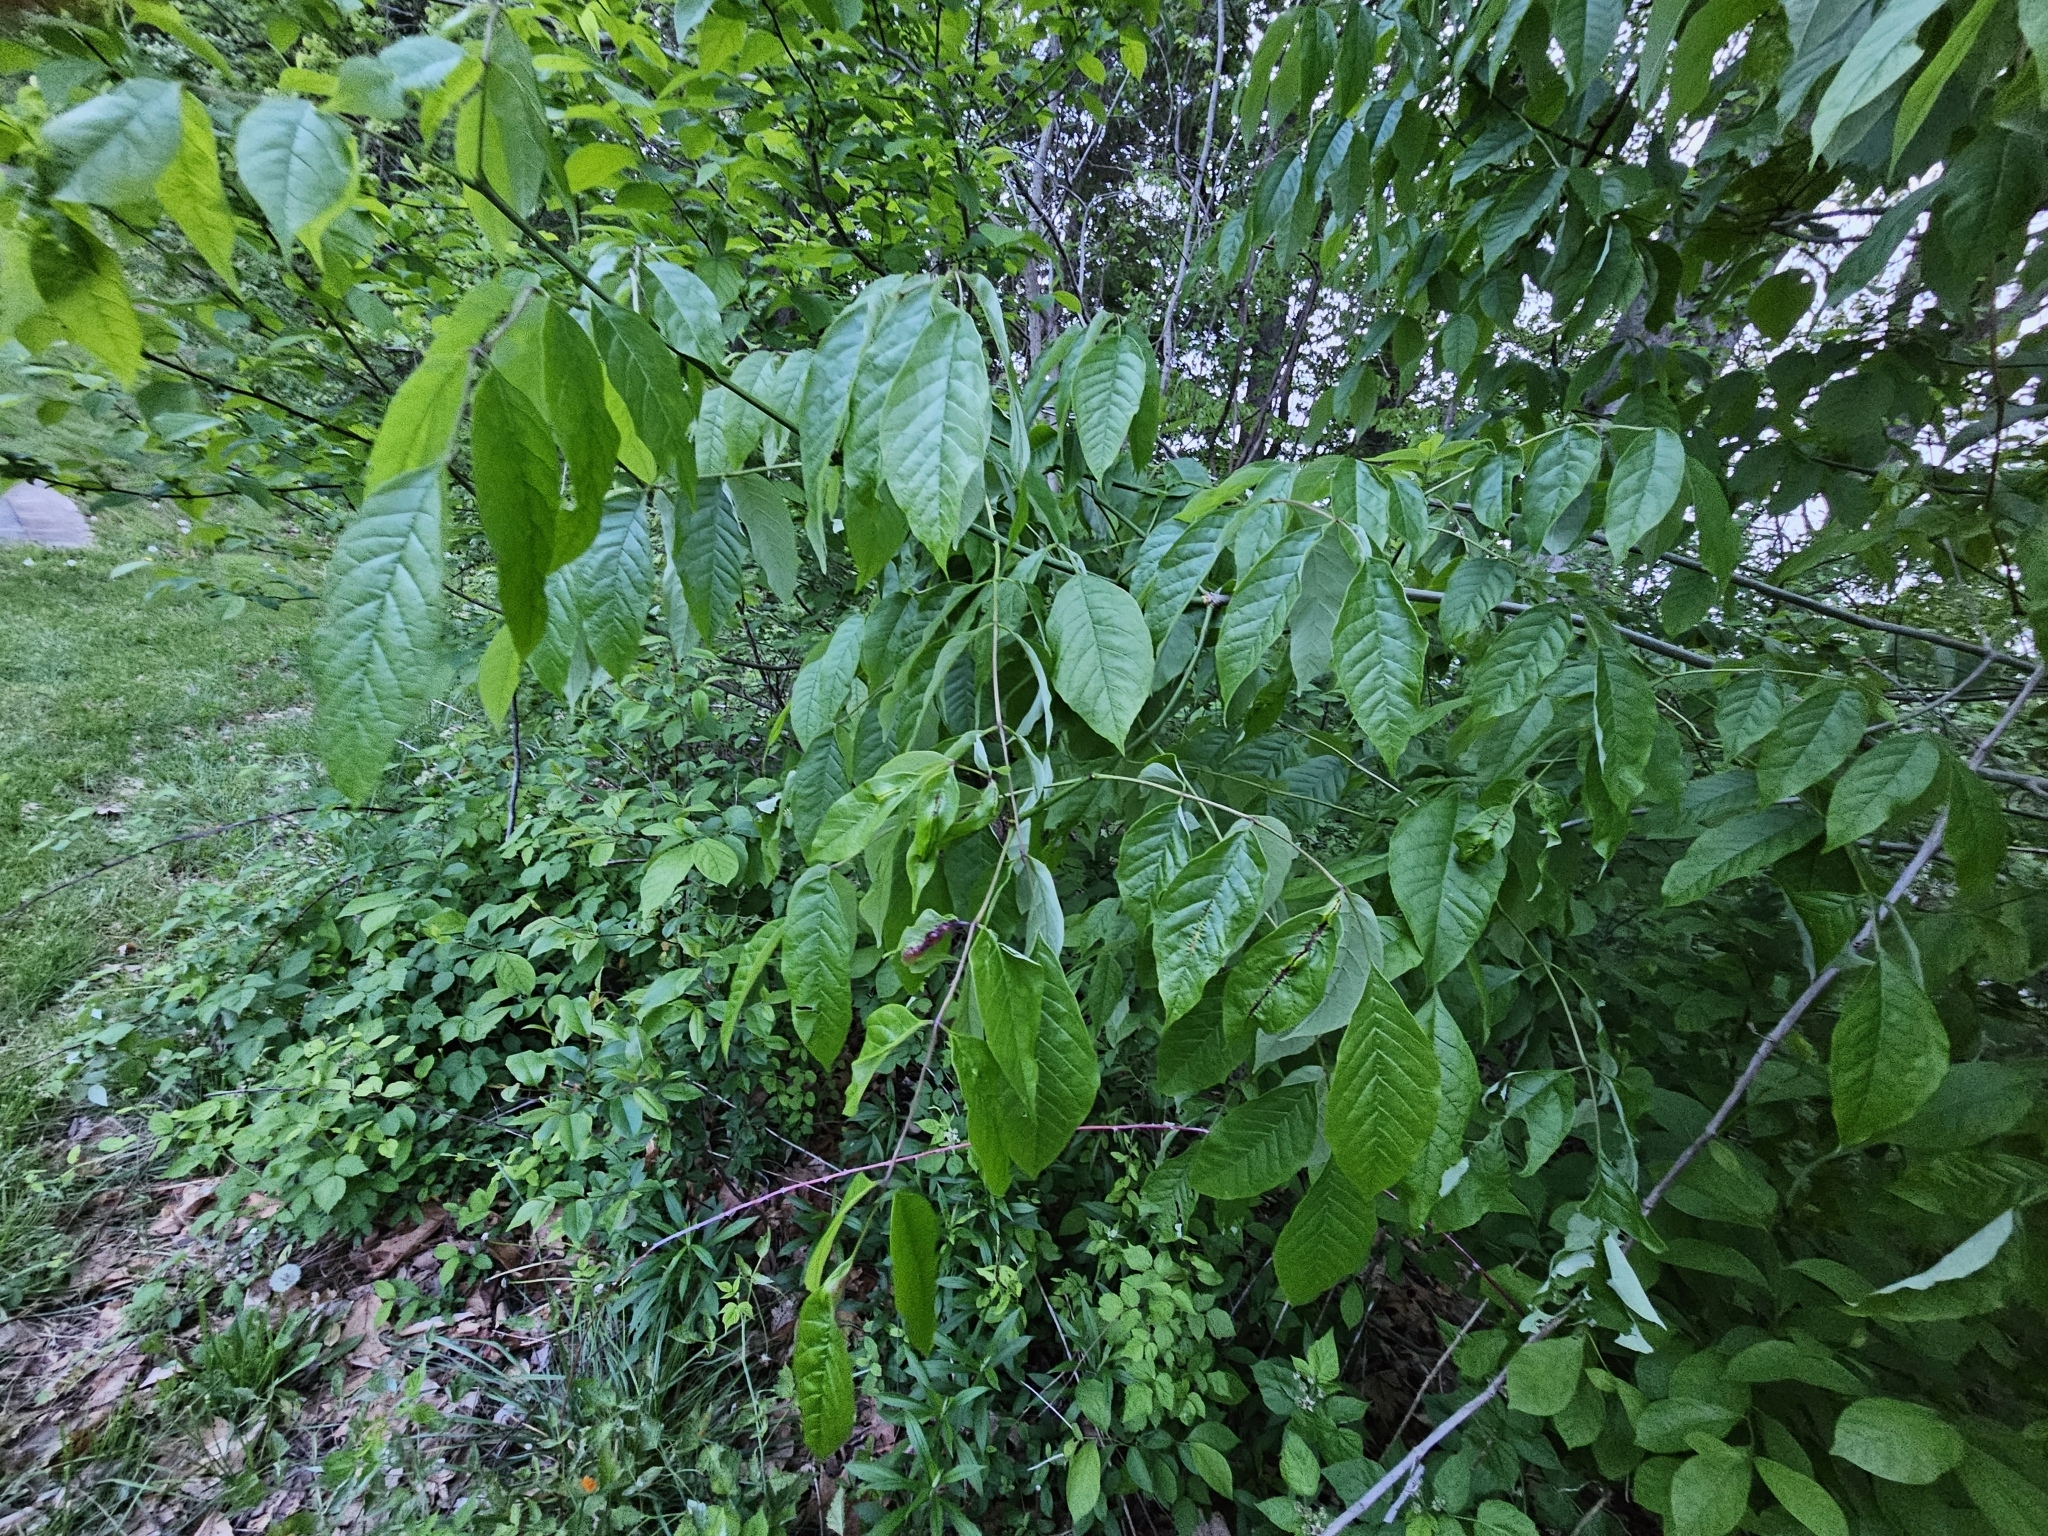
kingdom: Animalia
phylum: Arthropoda
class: Insecta
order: Diptera
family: Cecidomyiidae
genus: Dasineura
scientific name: Dasineura tumidosae
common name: Ash petiole gall midge
